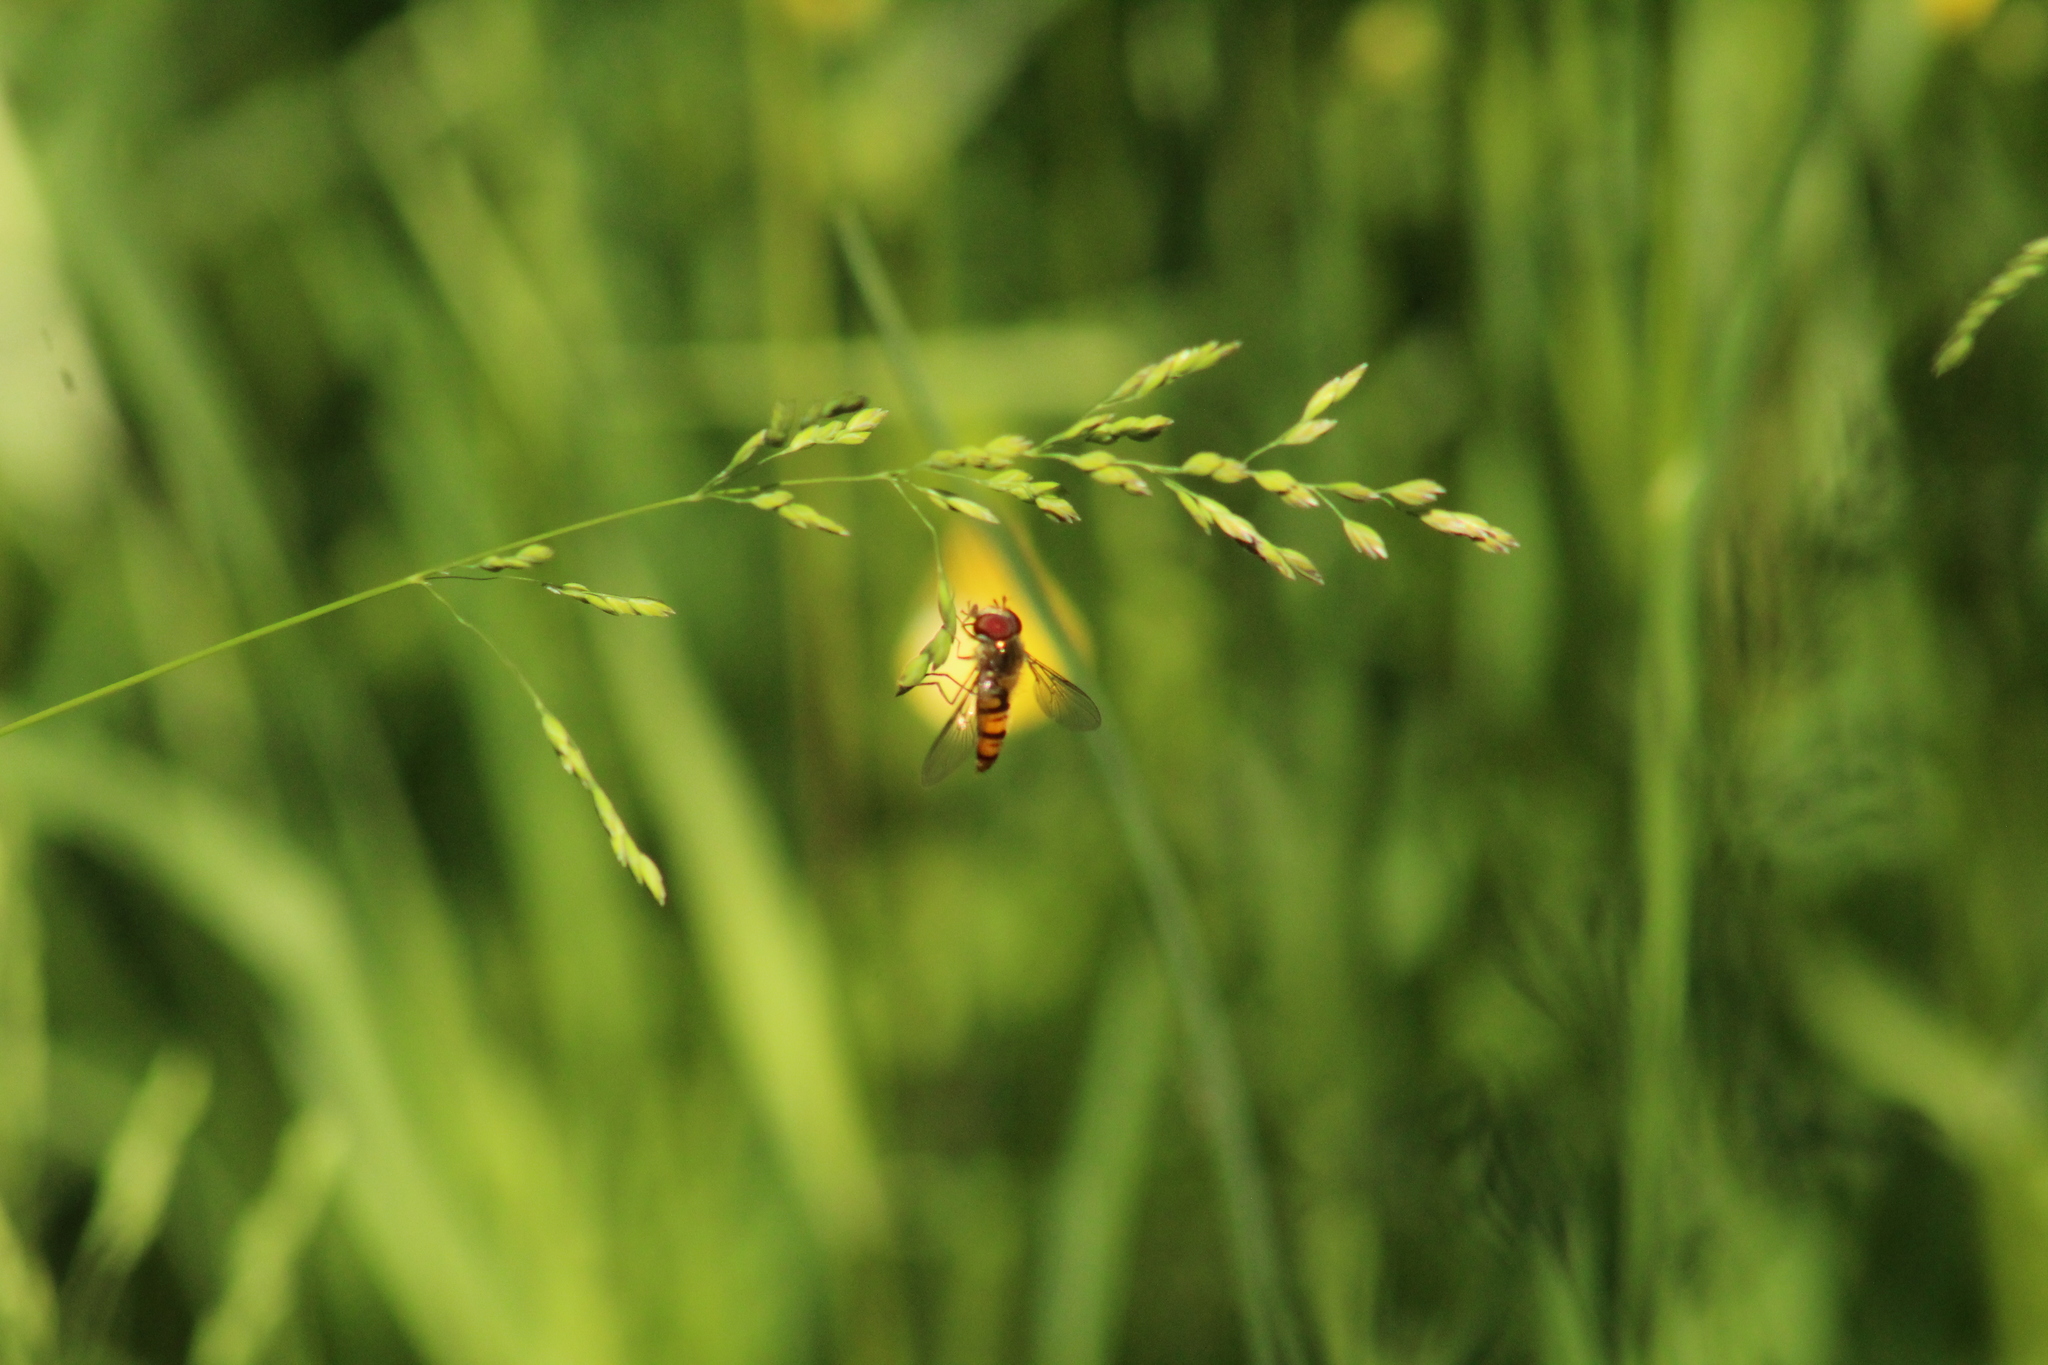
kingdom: Animalia
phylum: Arthropoda
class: Insecta
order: Diptera
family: Syrphidae
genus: Episyrphus
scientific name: Episyrphus balteatus
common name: Marmalade hoverfly
